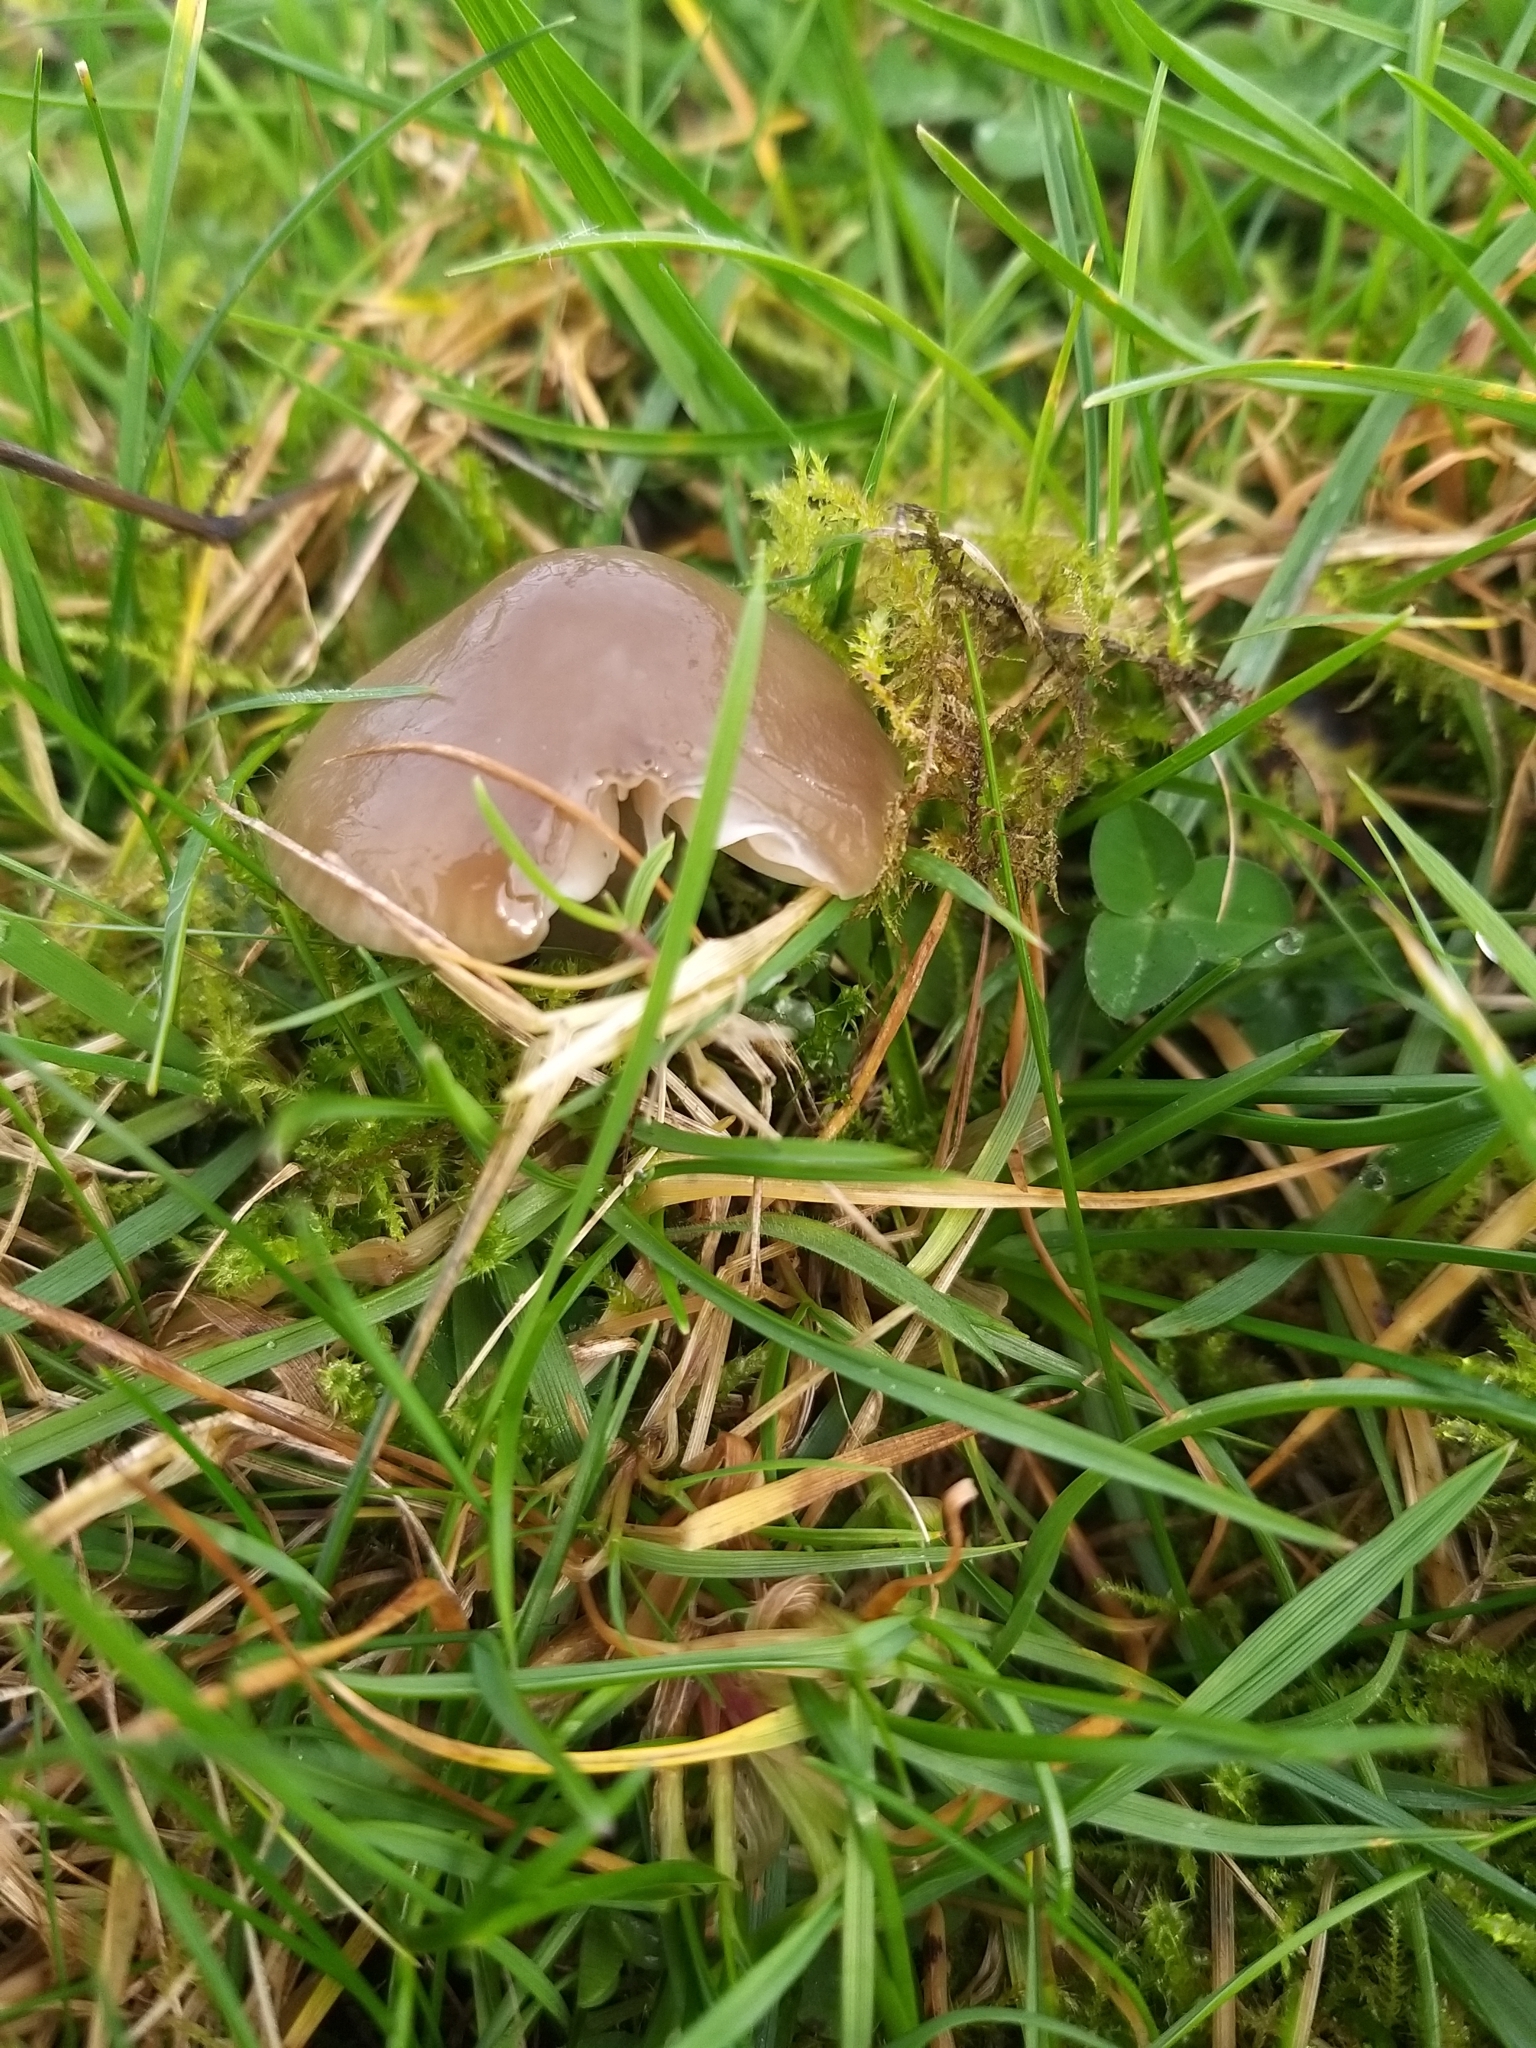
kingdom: Fungi
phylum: Basidiomycota
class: Agaricomycetes
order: Agaricales
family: Hygrophoraceae
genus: Gliophorus
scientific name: Gliophorus irrigatus
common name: Slimy waxcap
